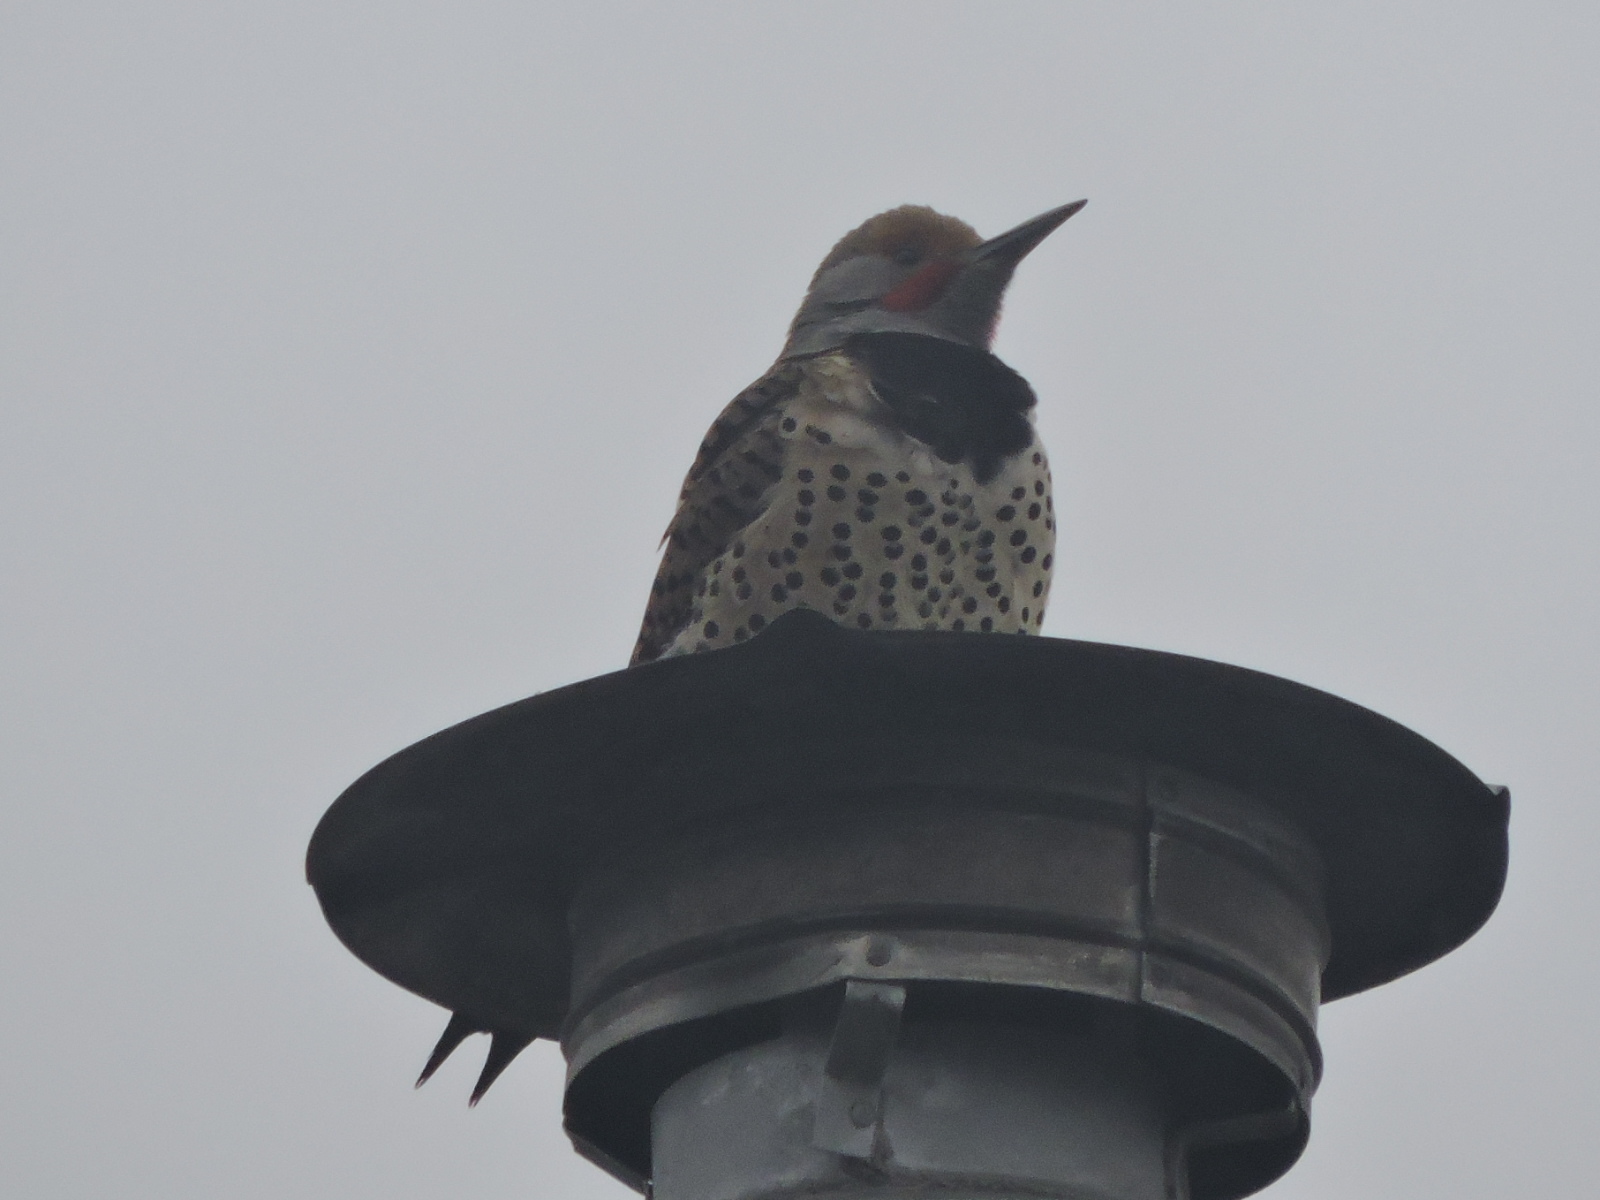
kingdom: Animalia
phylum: Chordata
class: Aves
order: Piciformes
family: Picidae
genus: Colaptes
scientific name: Colaptes auratus
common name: Northern flicker
